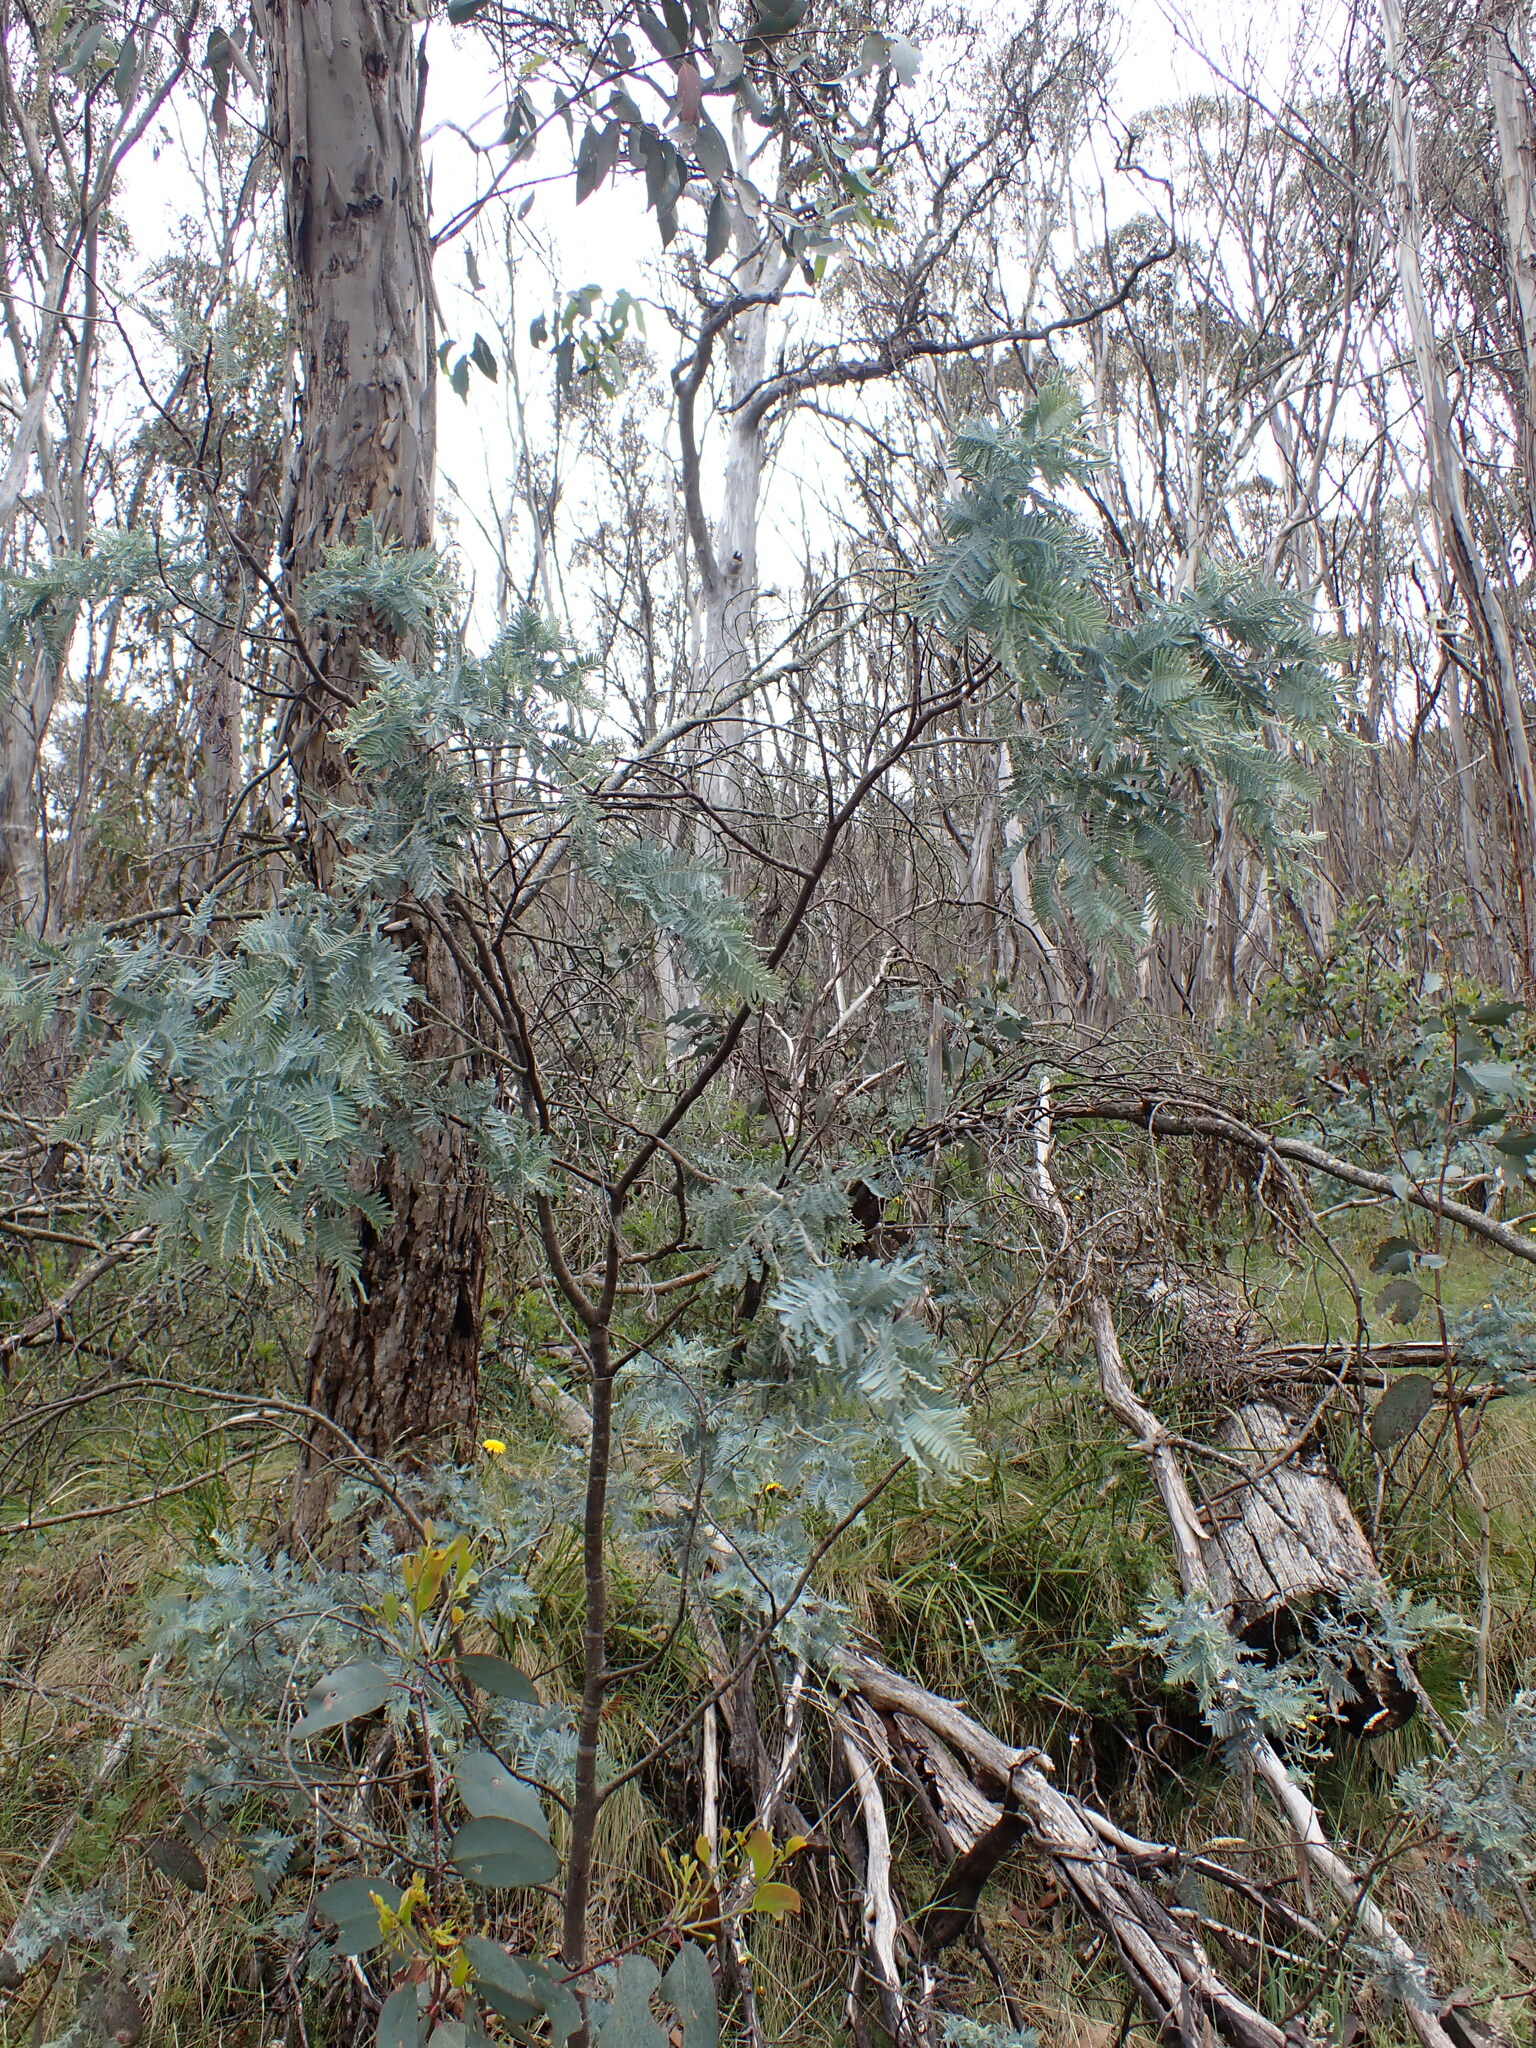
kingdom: Plantae
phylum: Tracheophyta
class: Magnoliopsida
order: Fabales
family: Fabaceae
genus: Acacia
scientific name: Acacia dealbata
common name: Silver wattle
